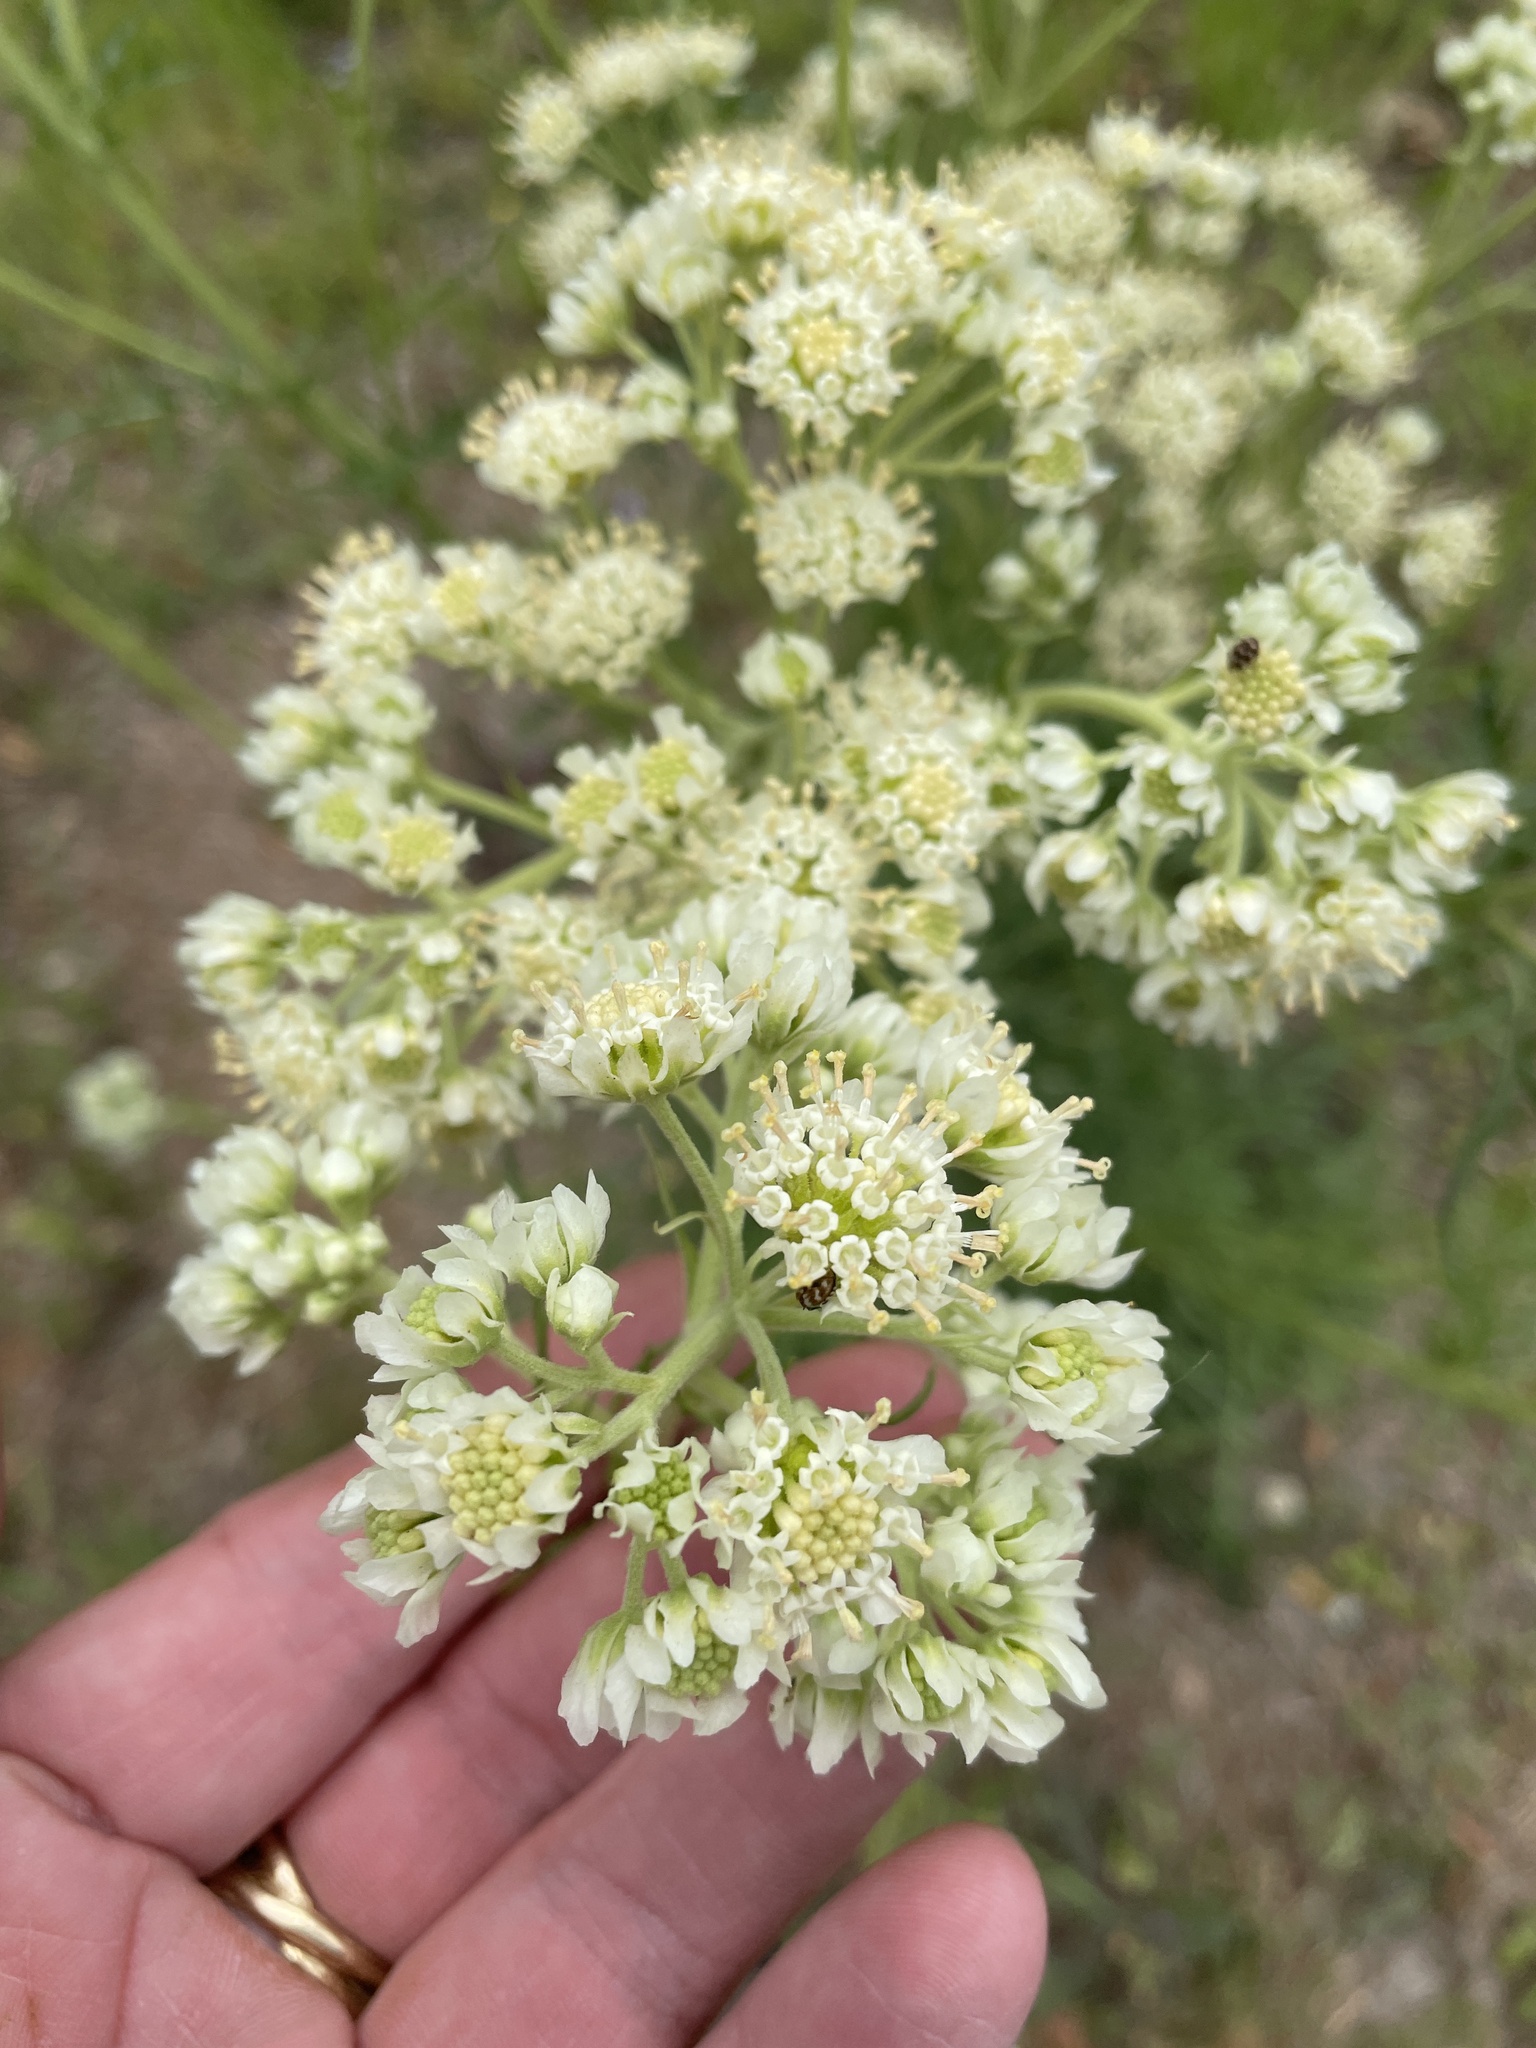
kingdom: Plantae
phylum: Tracheophyta
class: Magnoliopsida
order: Asterales
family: Asteraceae
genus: Hymenopappus
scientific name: Hymenopappus scabiosaeus
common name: Carolina woollywhite
